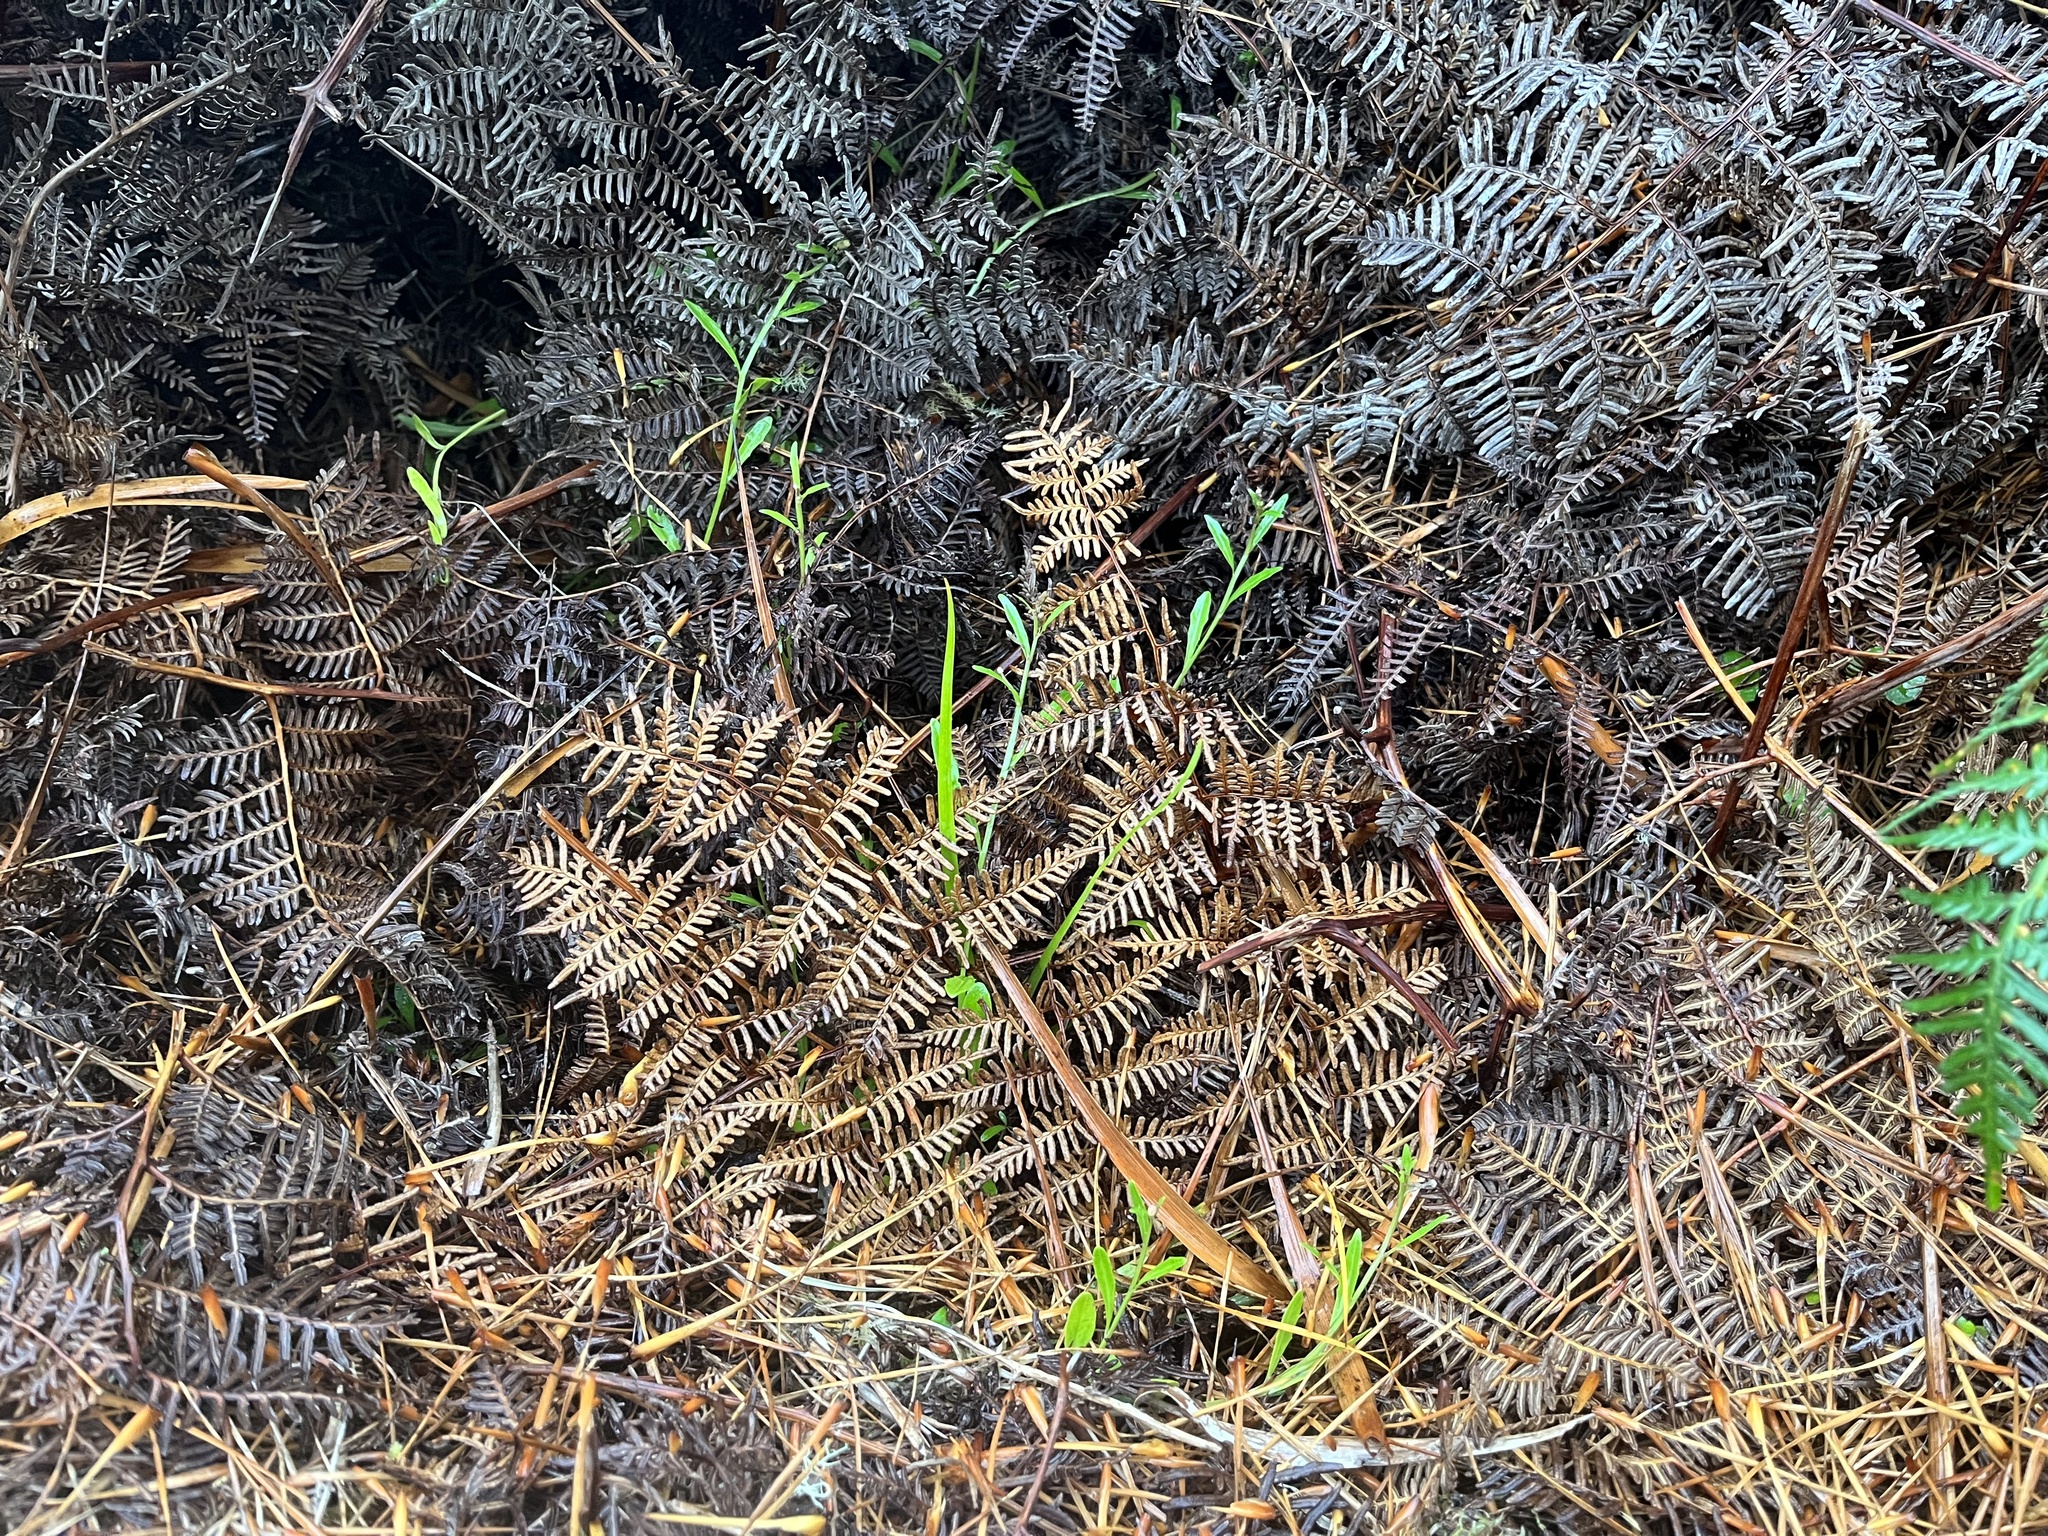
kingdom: Plantae
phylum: Tracheophyta
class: Magnoliopsida
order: Asterales
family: Campanulaceae
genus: Lobelia
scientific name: Lobelia anceps
